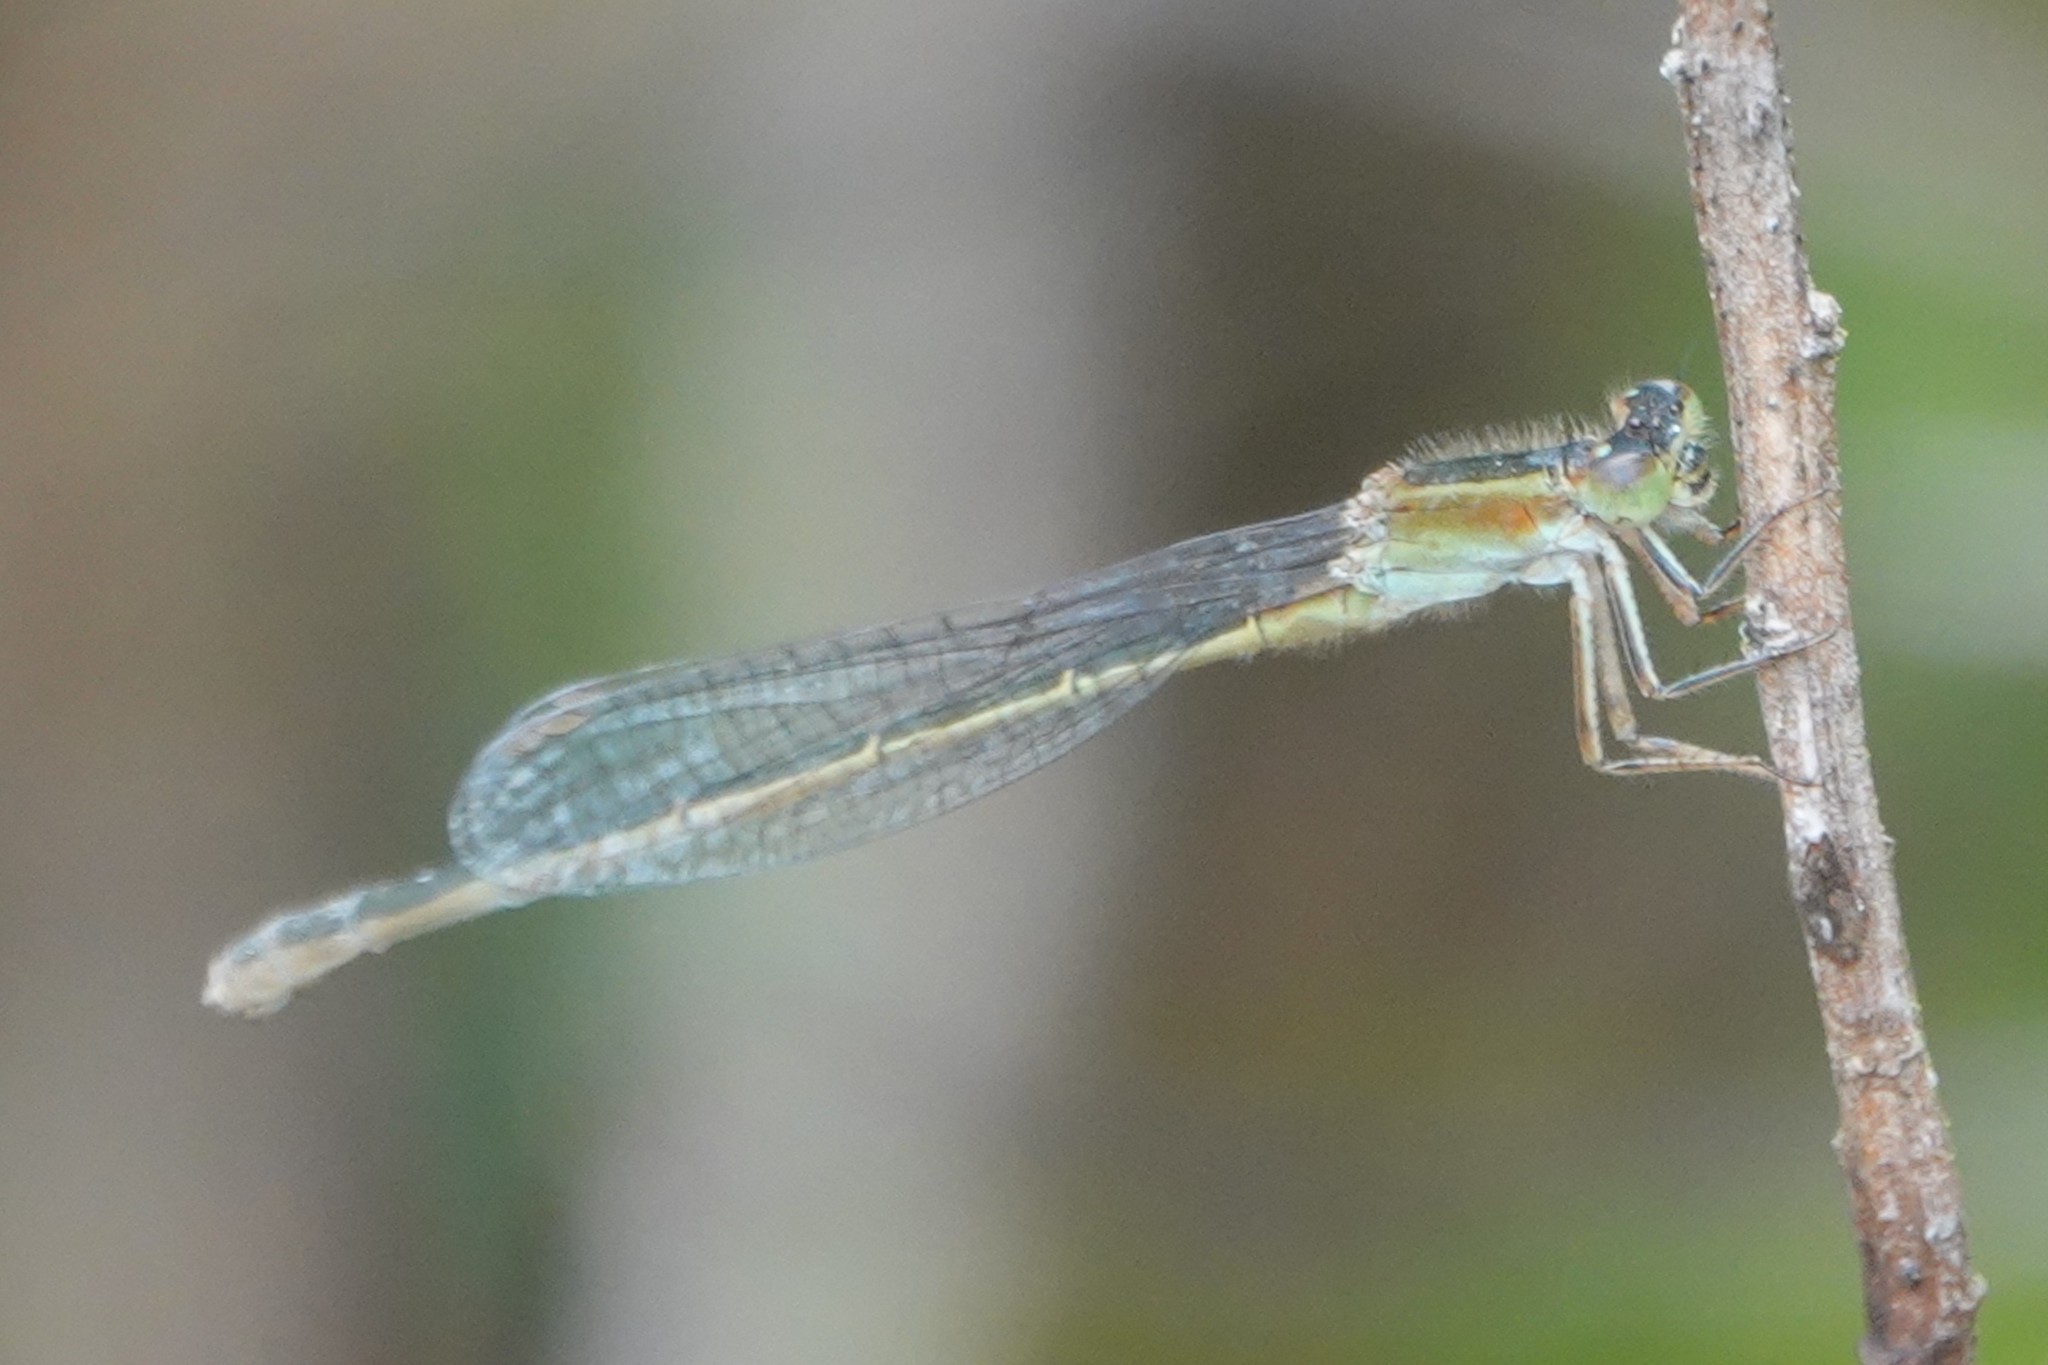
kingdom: Animalia
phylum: Arthropoda
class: Insecta
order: Odonata
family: Coenagrionidae
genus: Ischnura
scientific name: Ischnura ramburii
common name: Rambur's forktail
